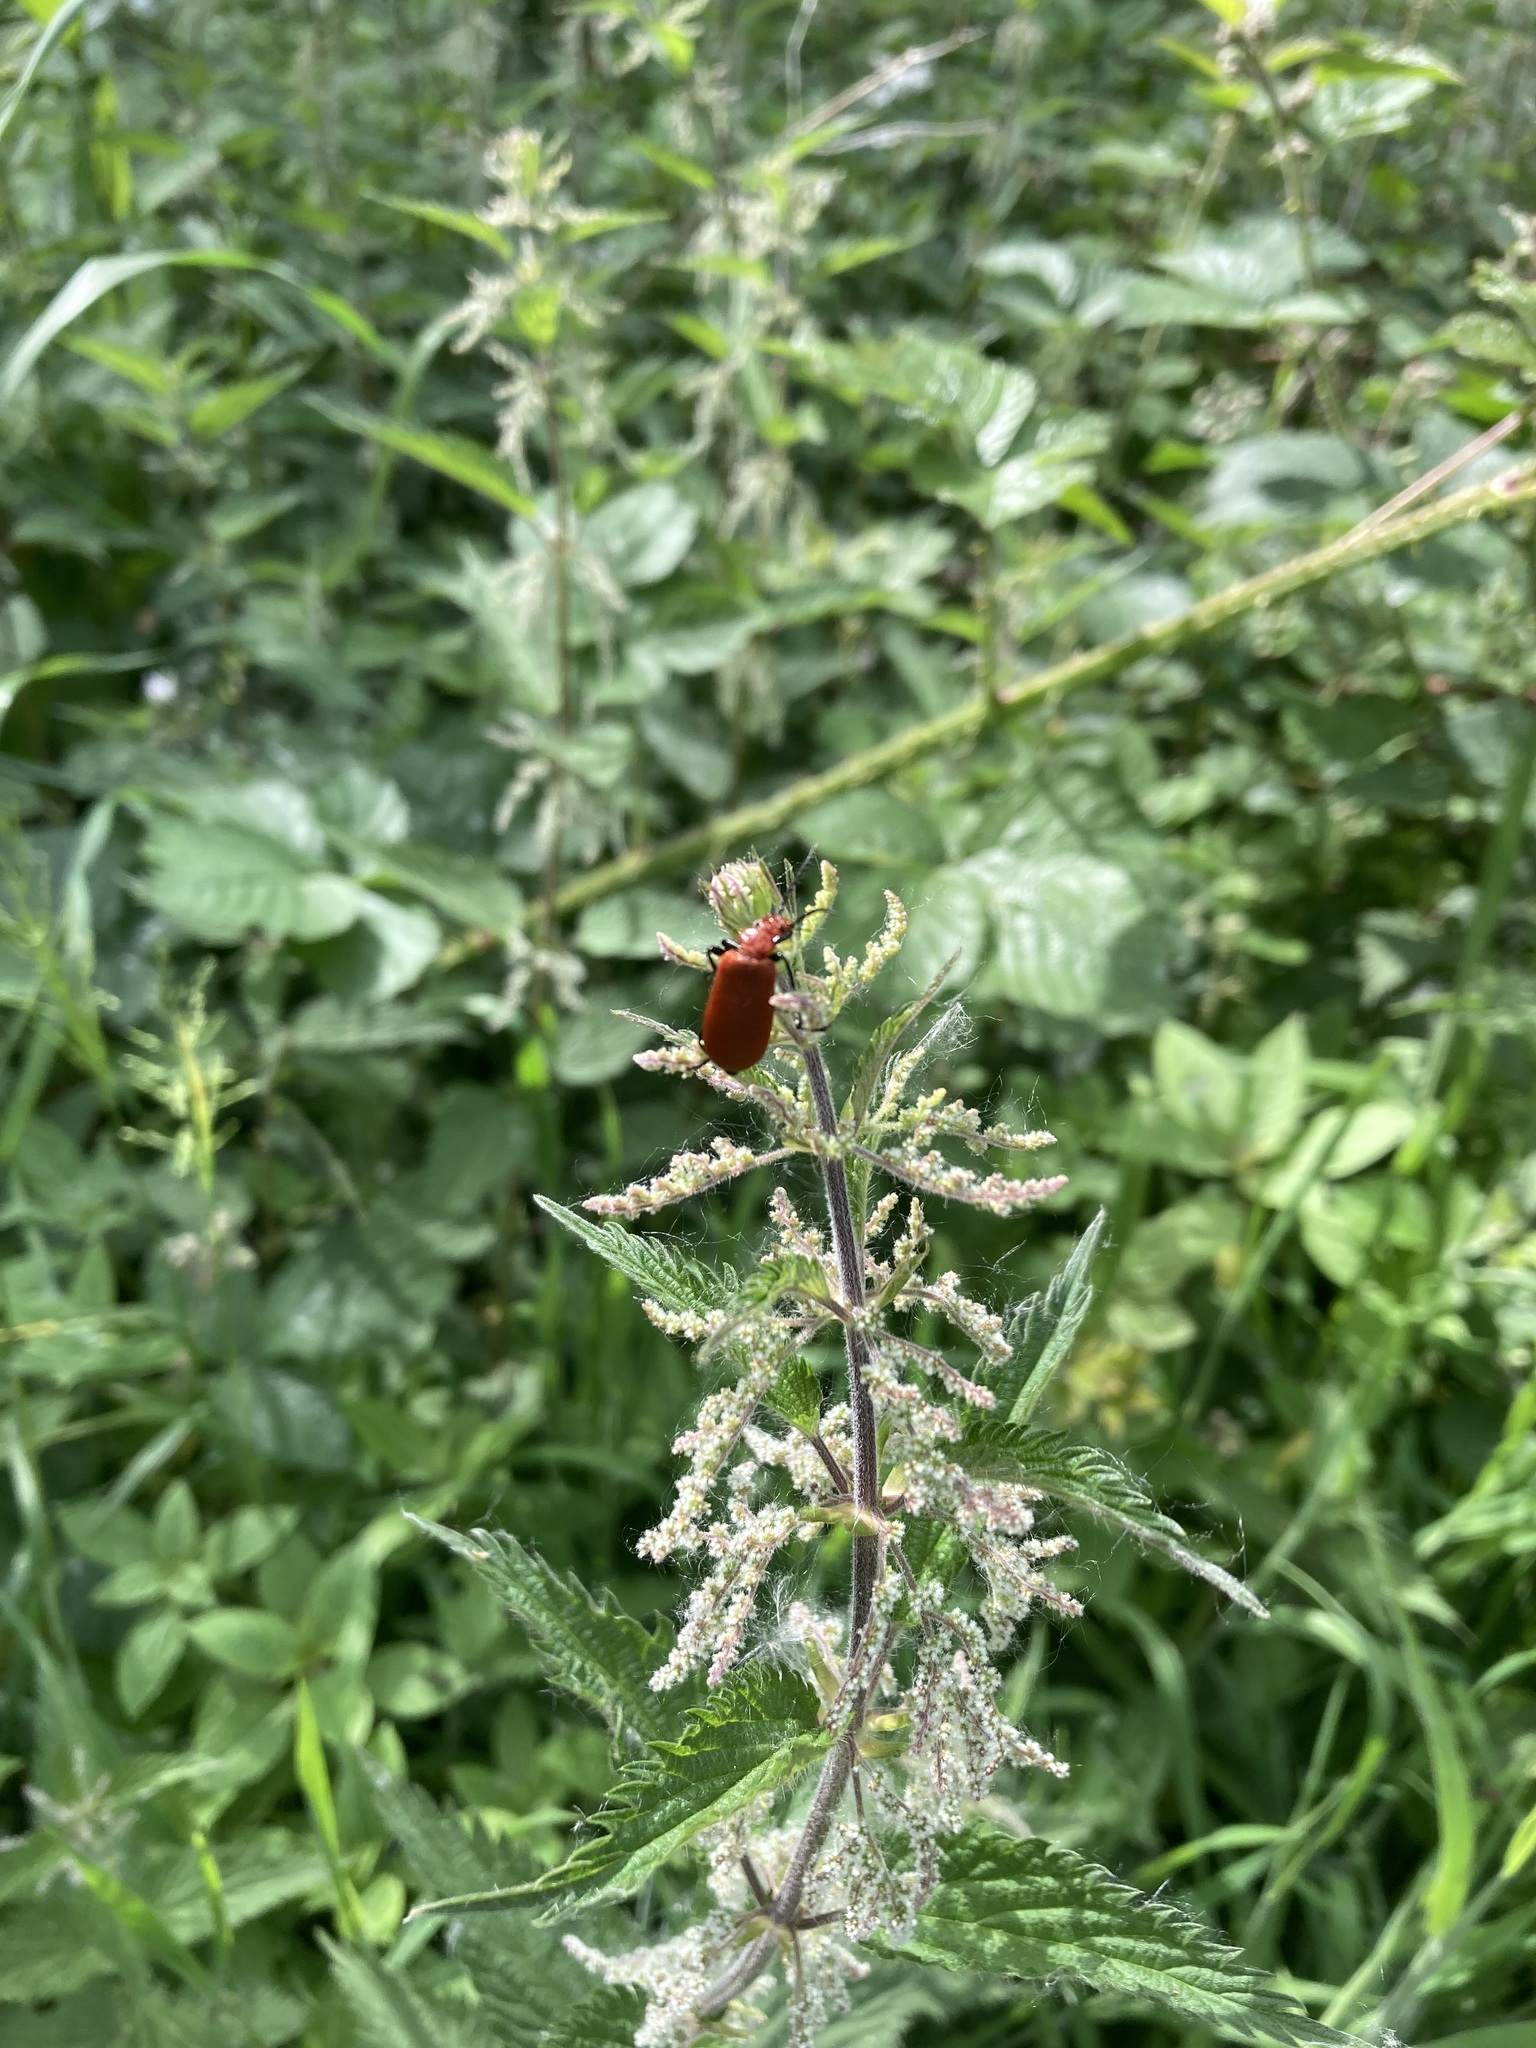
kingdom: Animalia
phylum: Arthropoda
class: Insecta
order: Coleoptera
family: Pyrochroidae
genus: Pyrochroa
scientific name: Pyrochroa serraticornis
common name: Red-headed cardinal beetle
